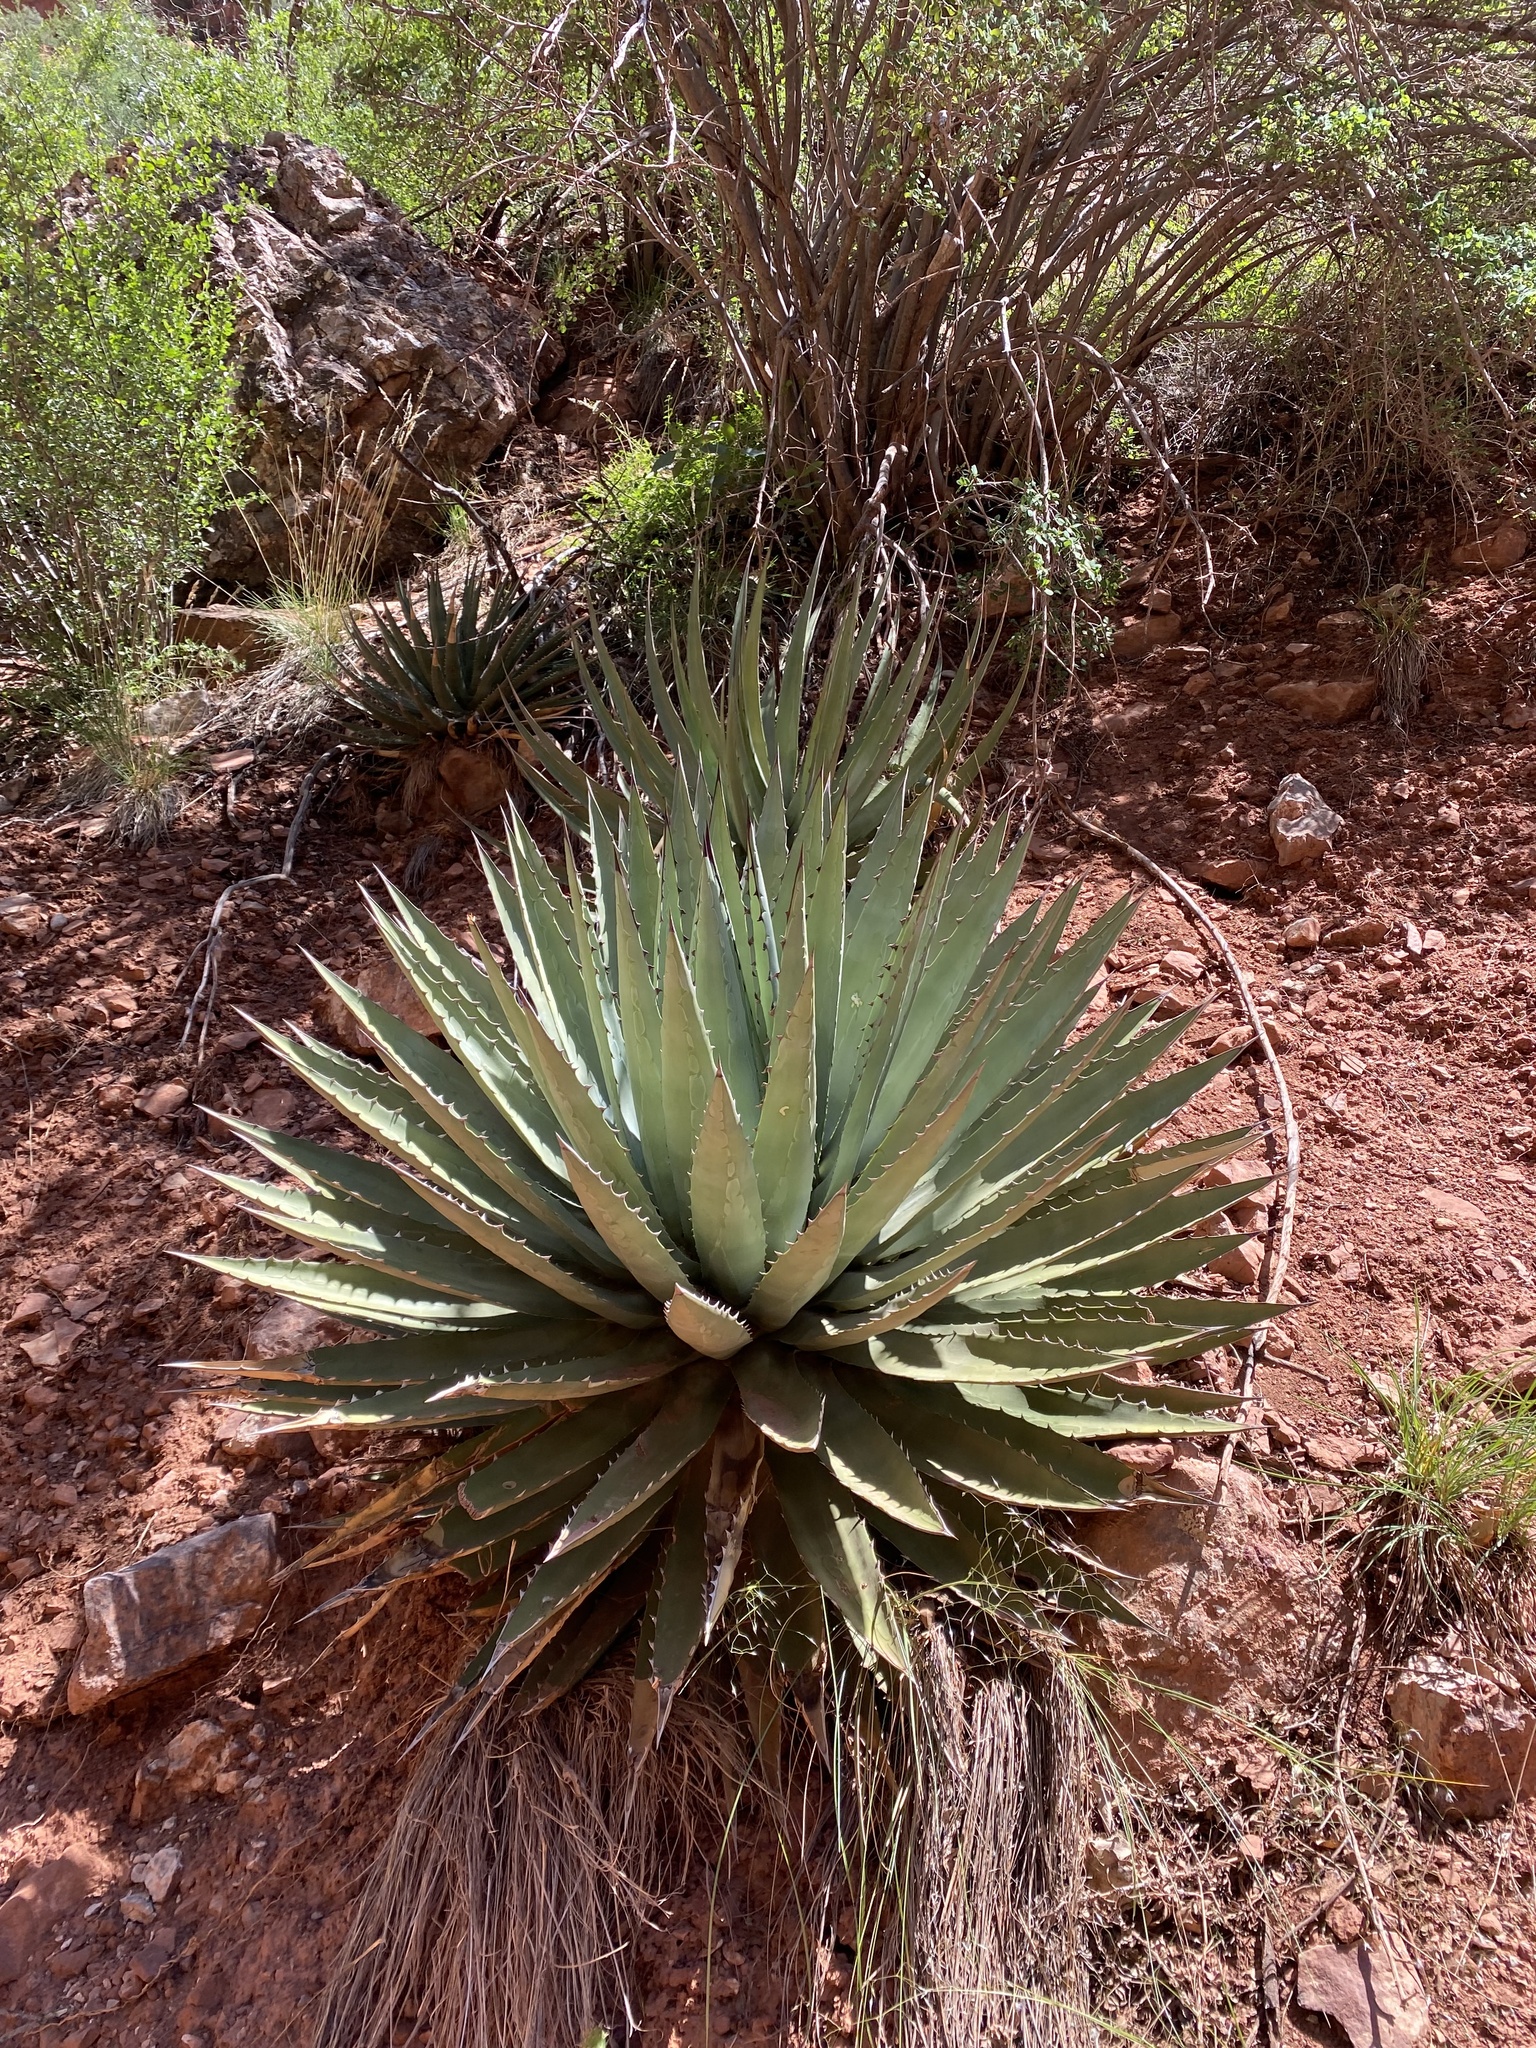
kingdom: Plantae
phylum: Tracheophyta
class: Liliopsida
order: Asparagales
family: Asparagaceae
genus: Agave
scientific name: Agave utahensis
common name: Utah agave
